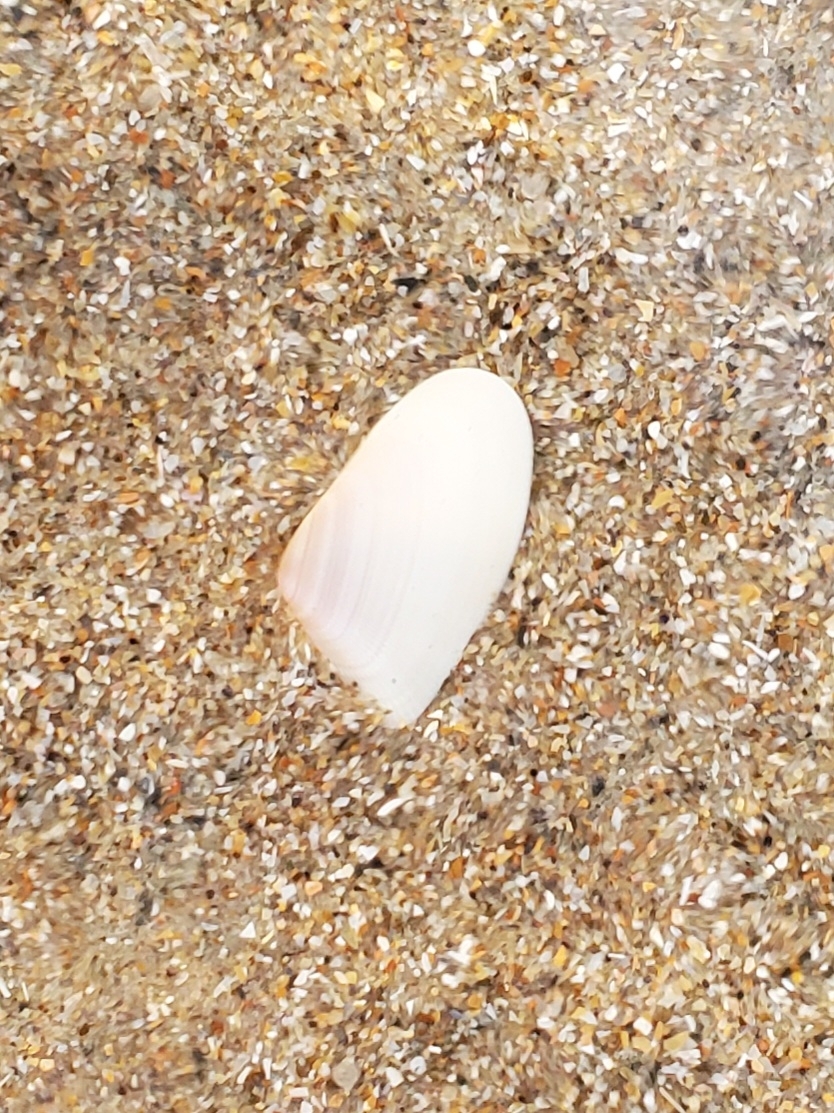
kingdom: Animalia
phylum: Mollusca
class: Bivalvia
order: Cardiida
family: Donacidae
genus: Donax
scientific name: Donax variabilis
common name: Butterfly shell
